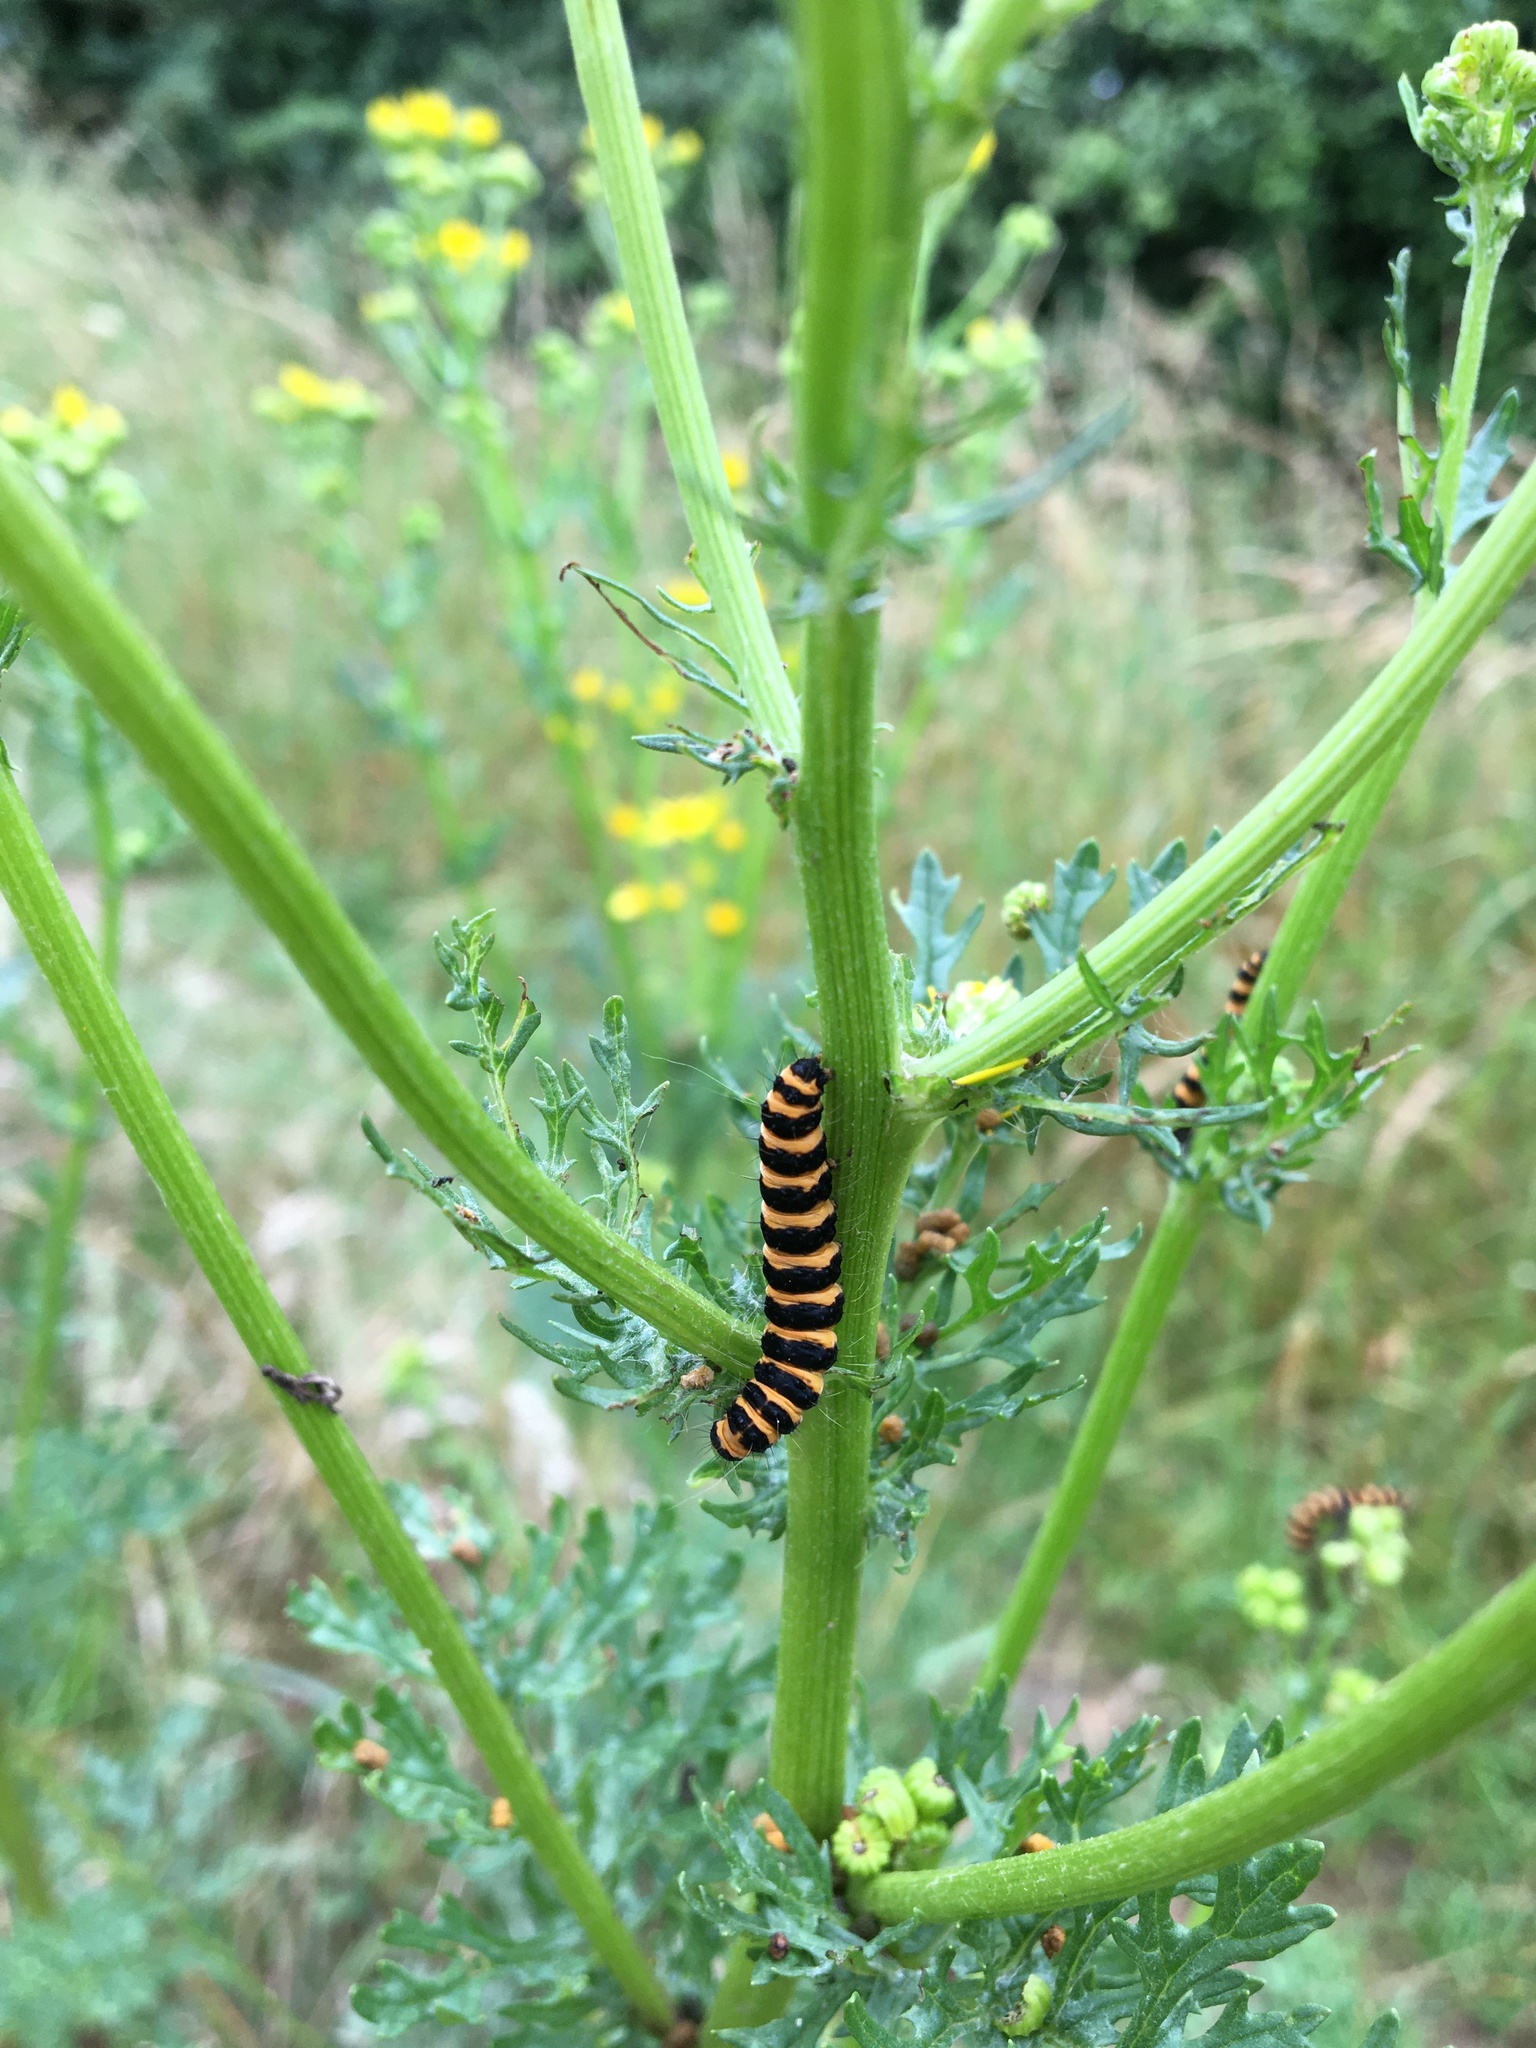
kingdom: Animalia
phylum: Arthropoda
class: Insecta
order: Lepidoptera
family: Erebidae
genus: Tyria
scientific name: Tyria jacobaeae
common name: Cinnabar
